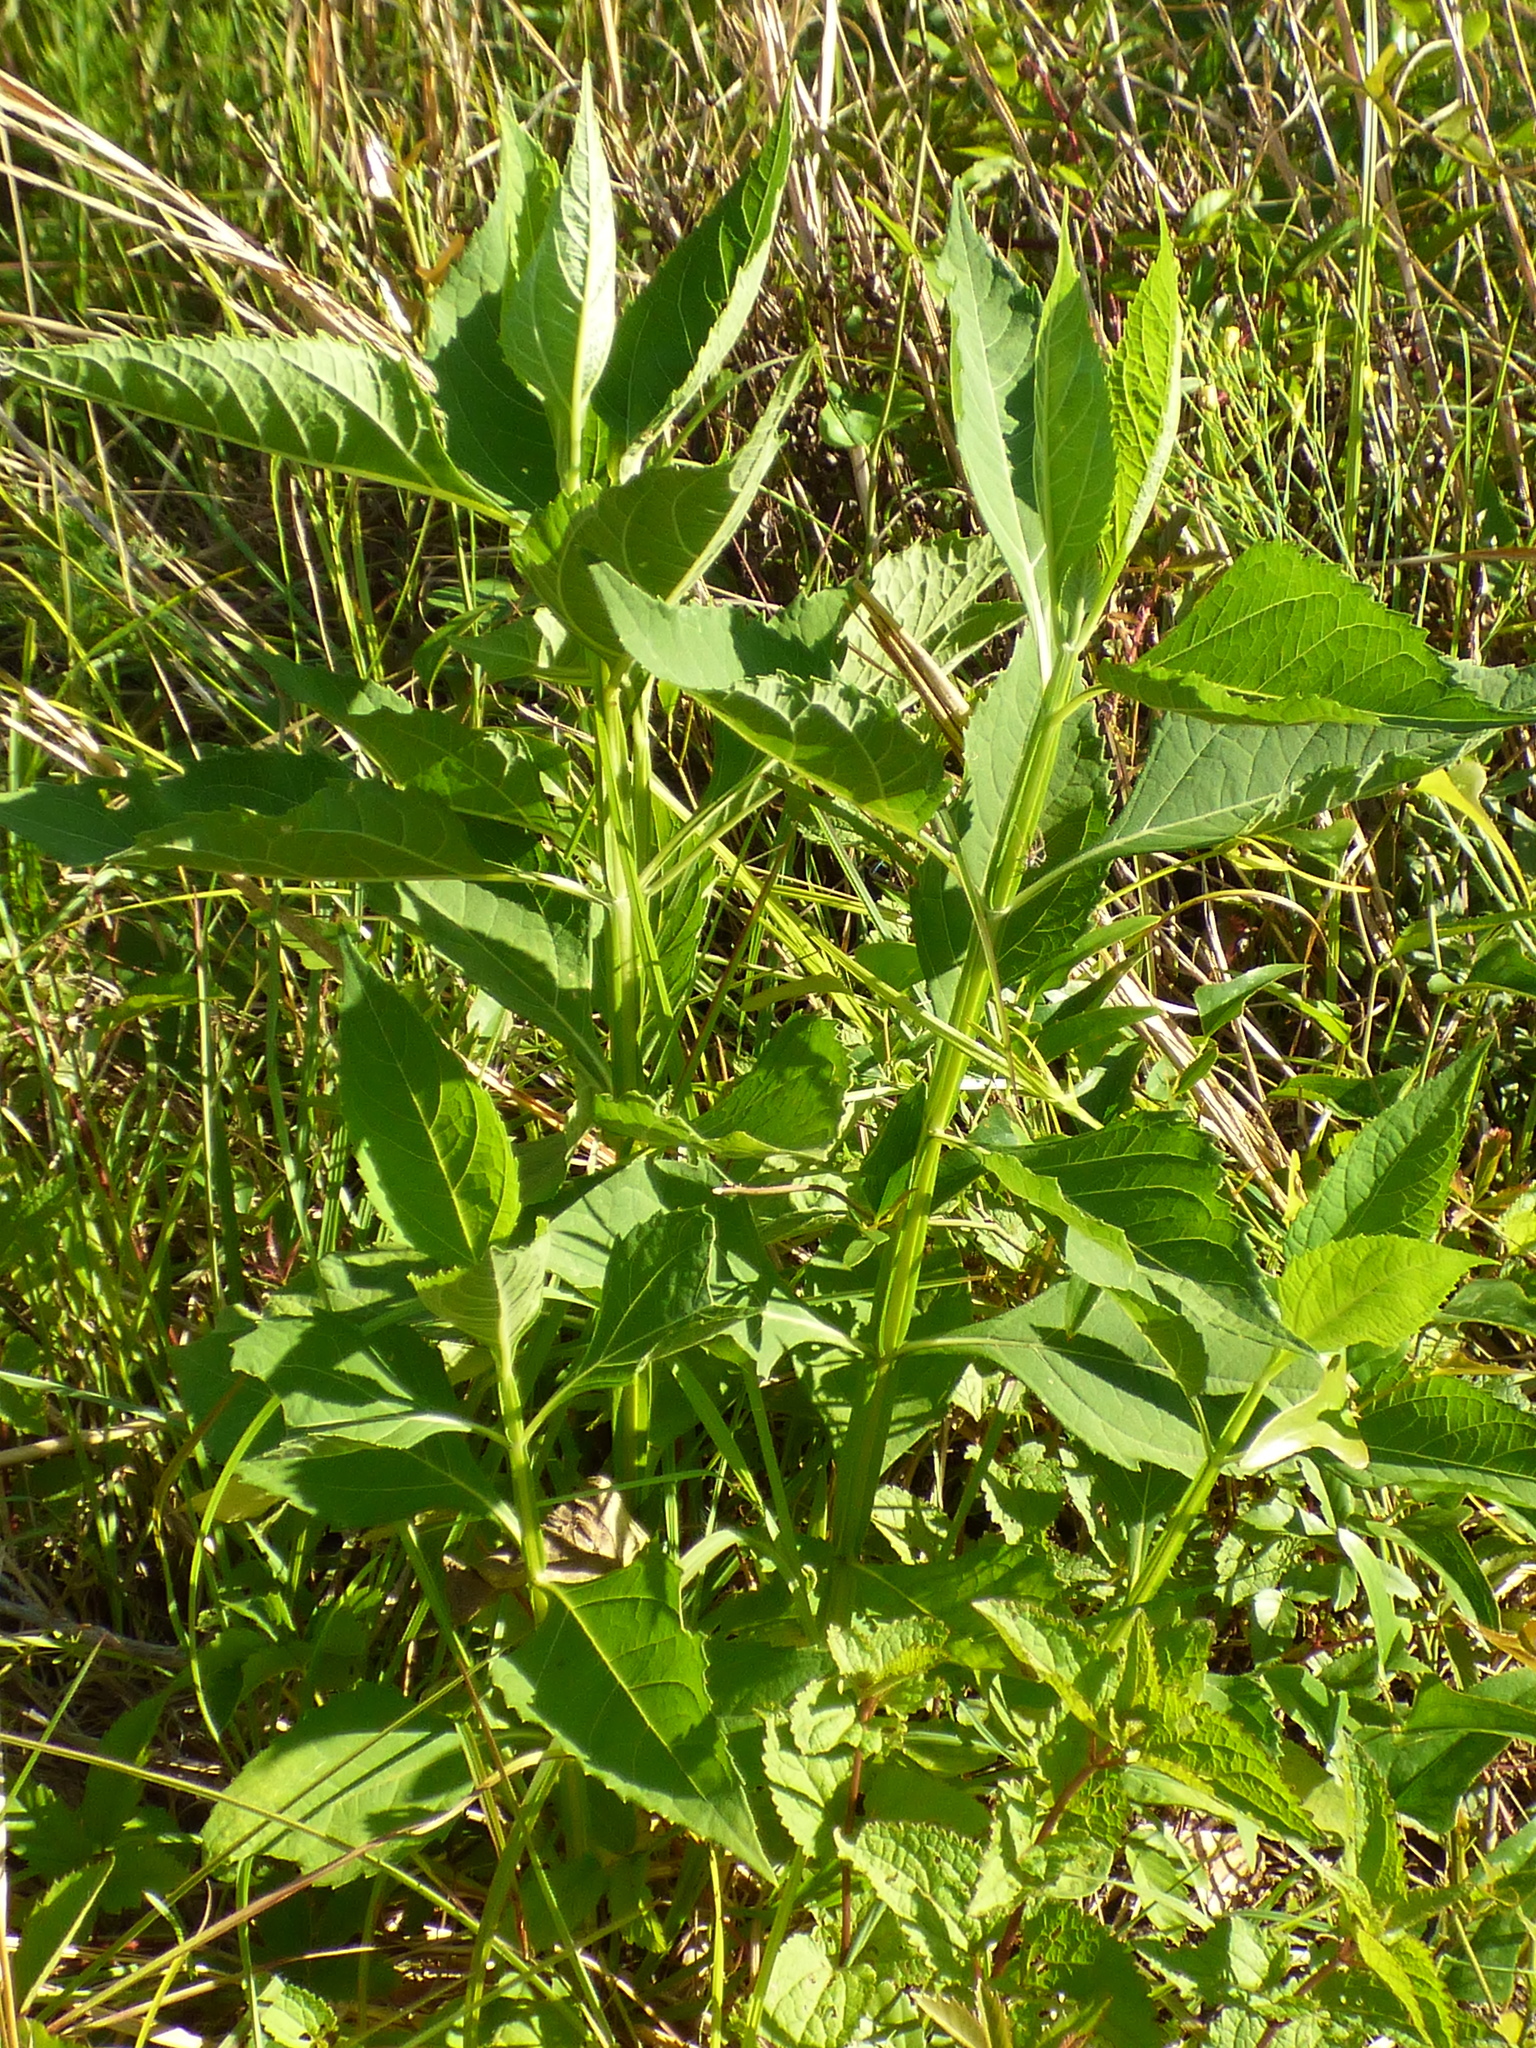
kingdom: Plantae
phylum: Tracheophyta
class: Magnoliopsida
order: Asterales
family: Asteraceae
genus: Verbesina
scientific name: Verbesina occidentalis
